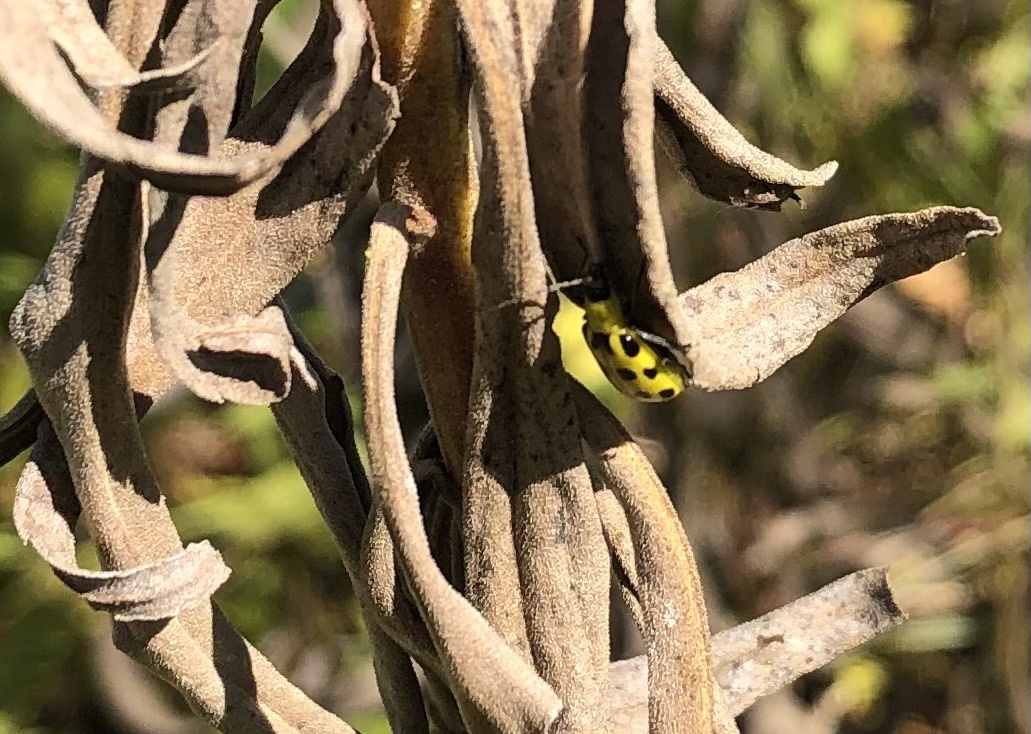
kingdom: Animalia
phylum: Arthropoda
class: Insecta
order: Coleoptera
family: Chrysomelidae
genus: Diabrotica
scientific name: Diabrotica undecimpunctata
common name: Spotted cucumber beetle
